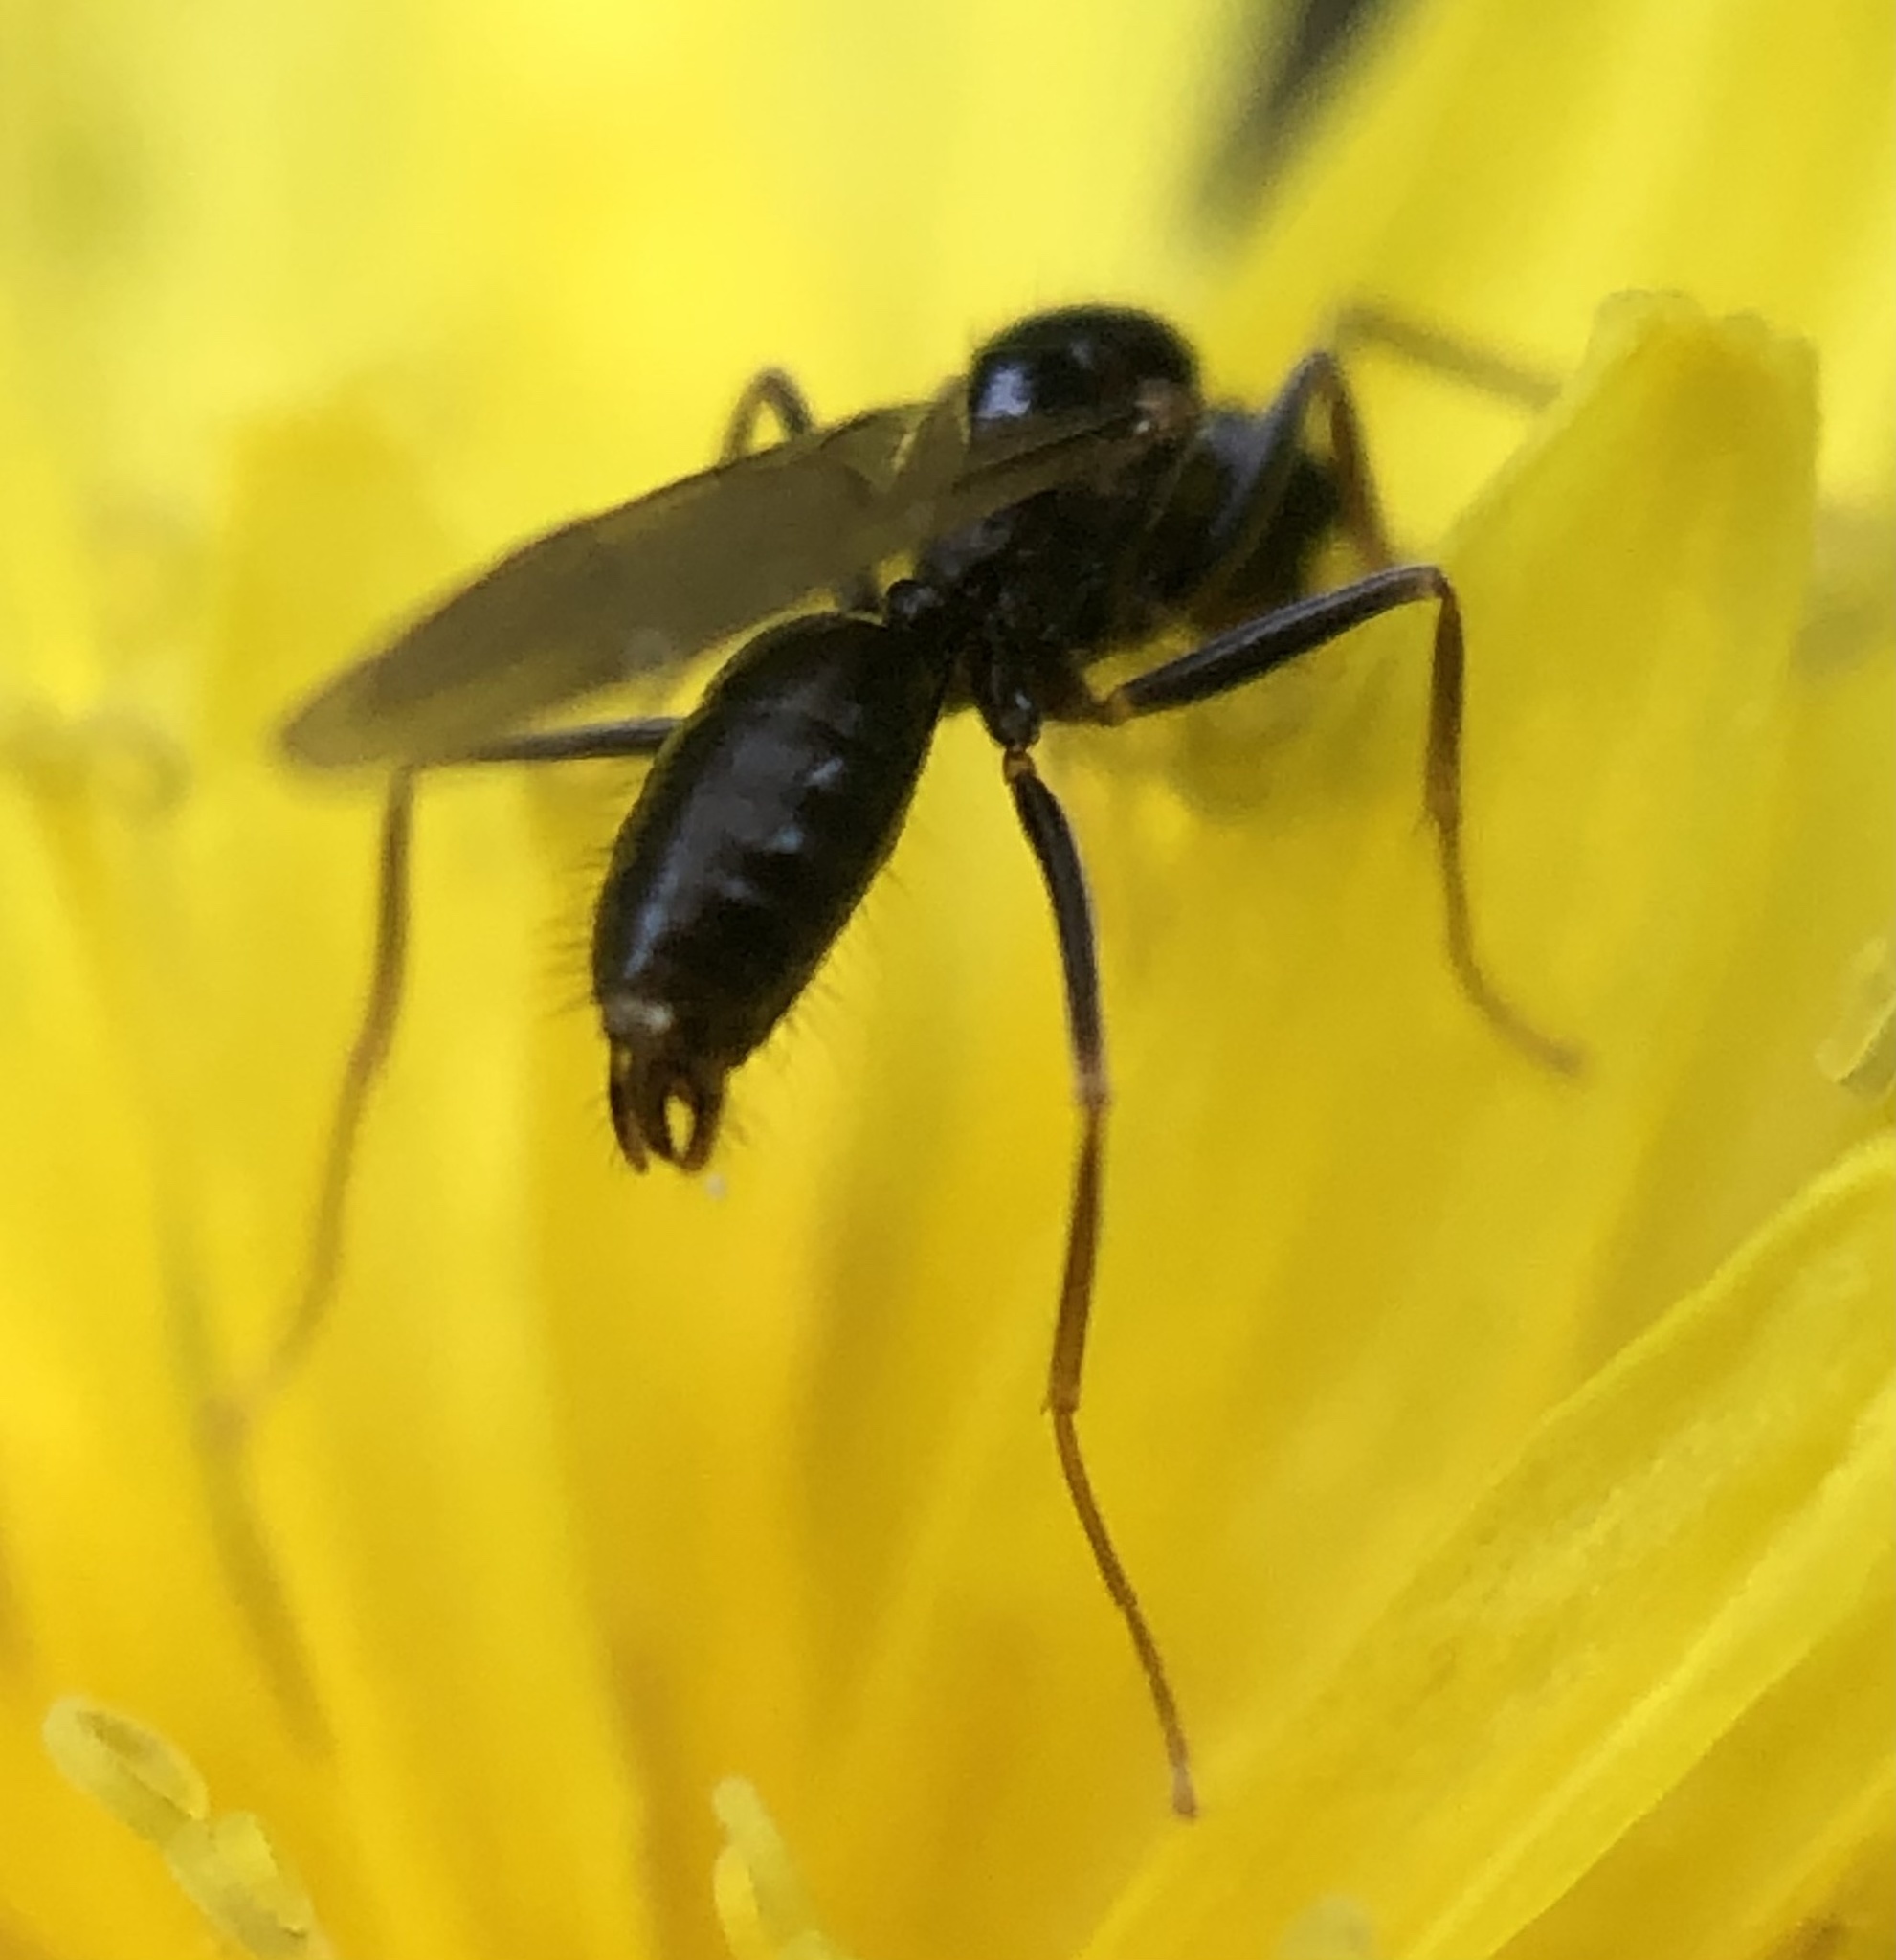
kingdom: Animalia
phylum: Arthropoda
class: Insecta
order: Hymenoptera
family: Formicidae
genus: Prenolepis
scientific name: Prenolepis imparis
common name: Small honey ant
